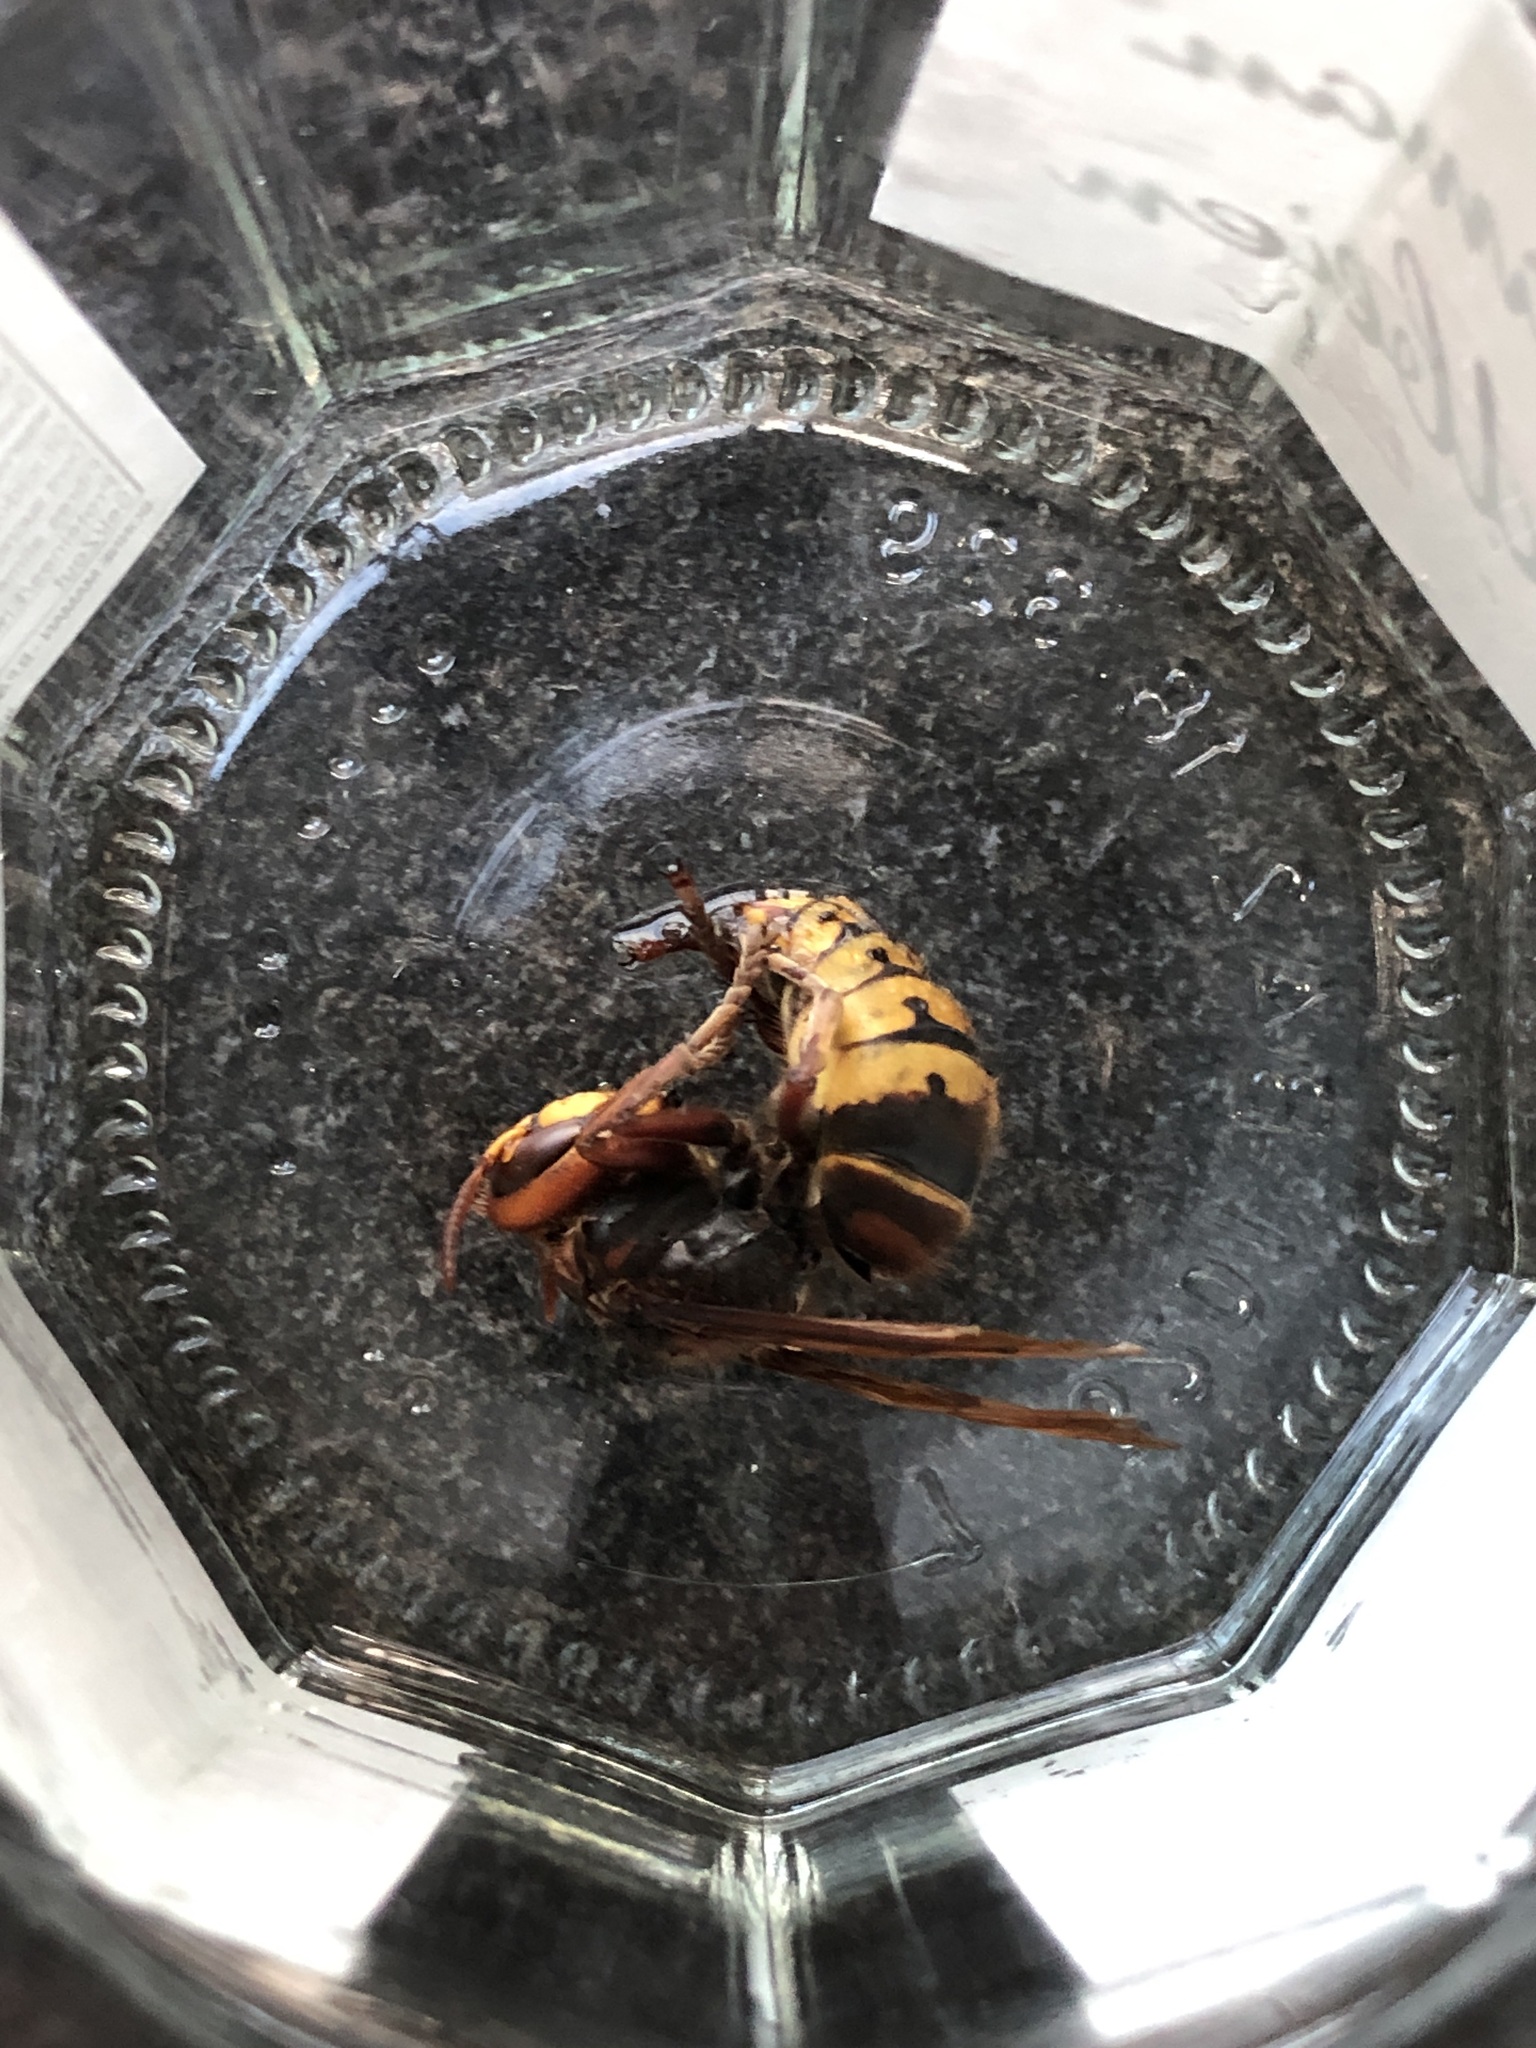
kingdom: Animalia
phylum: Arthropoda
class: Insecta
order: Hymenoptera
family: Vespidae
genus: Vespa
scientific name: Vespa crabro
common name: Hornet
